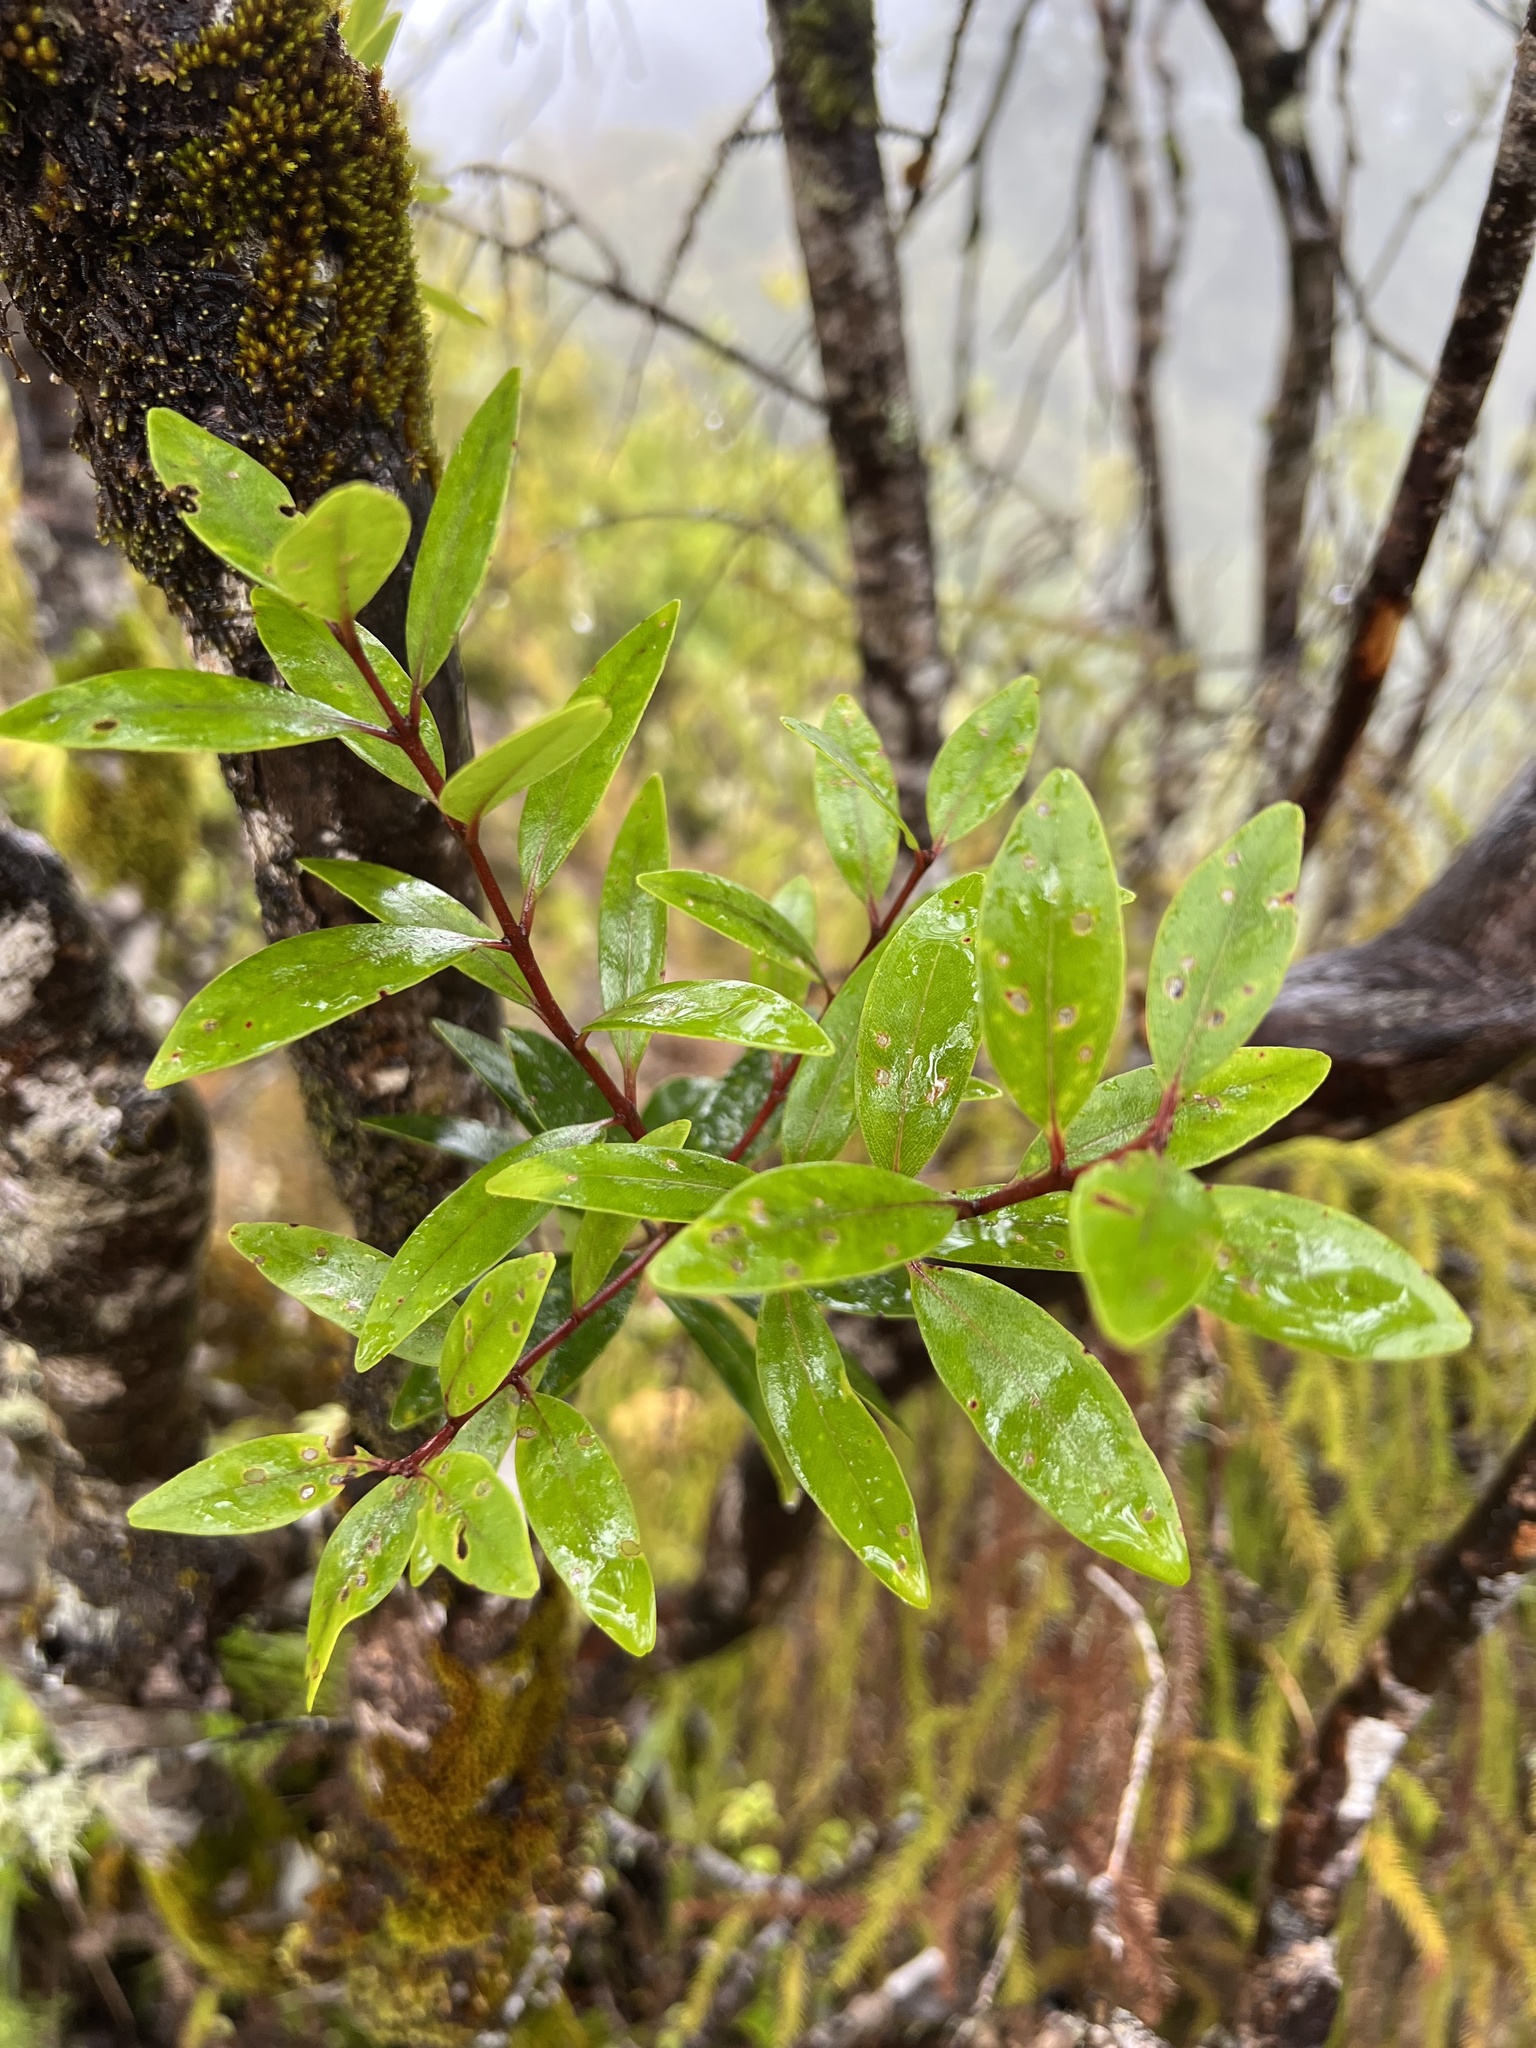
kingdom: Plantae
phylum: Tracheophyta
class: Magnoliopsida
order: Myrtales
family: Myrtaceae
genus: Metrosideros
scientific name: Metrosideros robusta
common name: Northern rata
